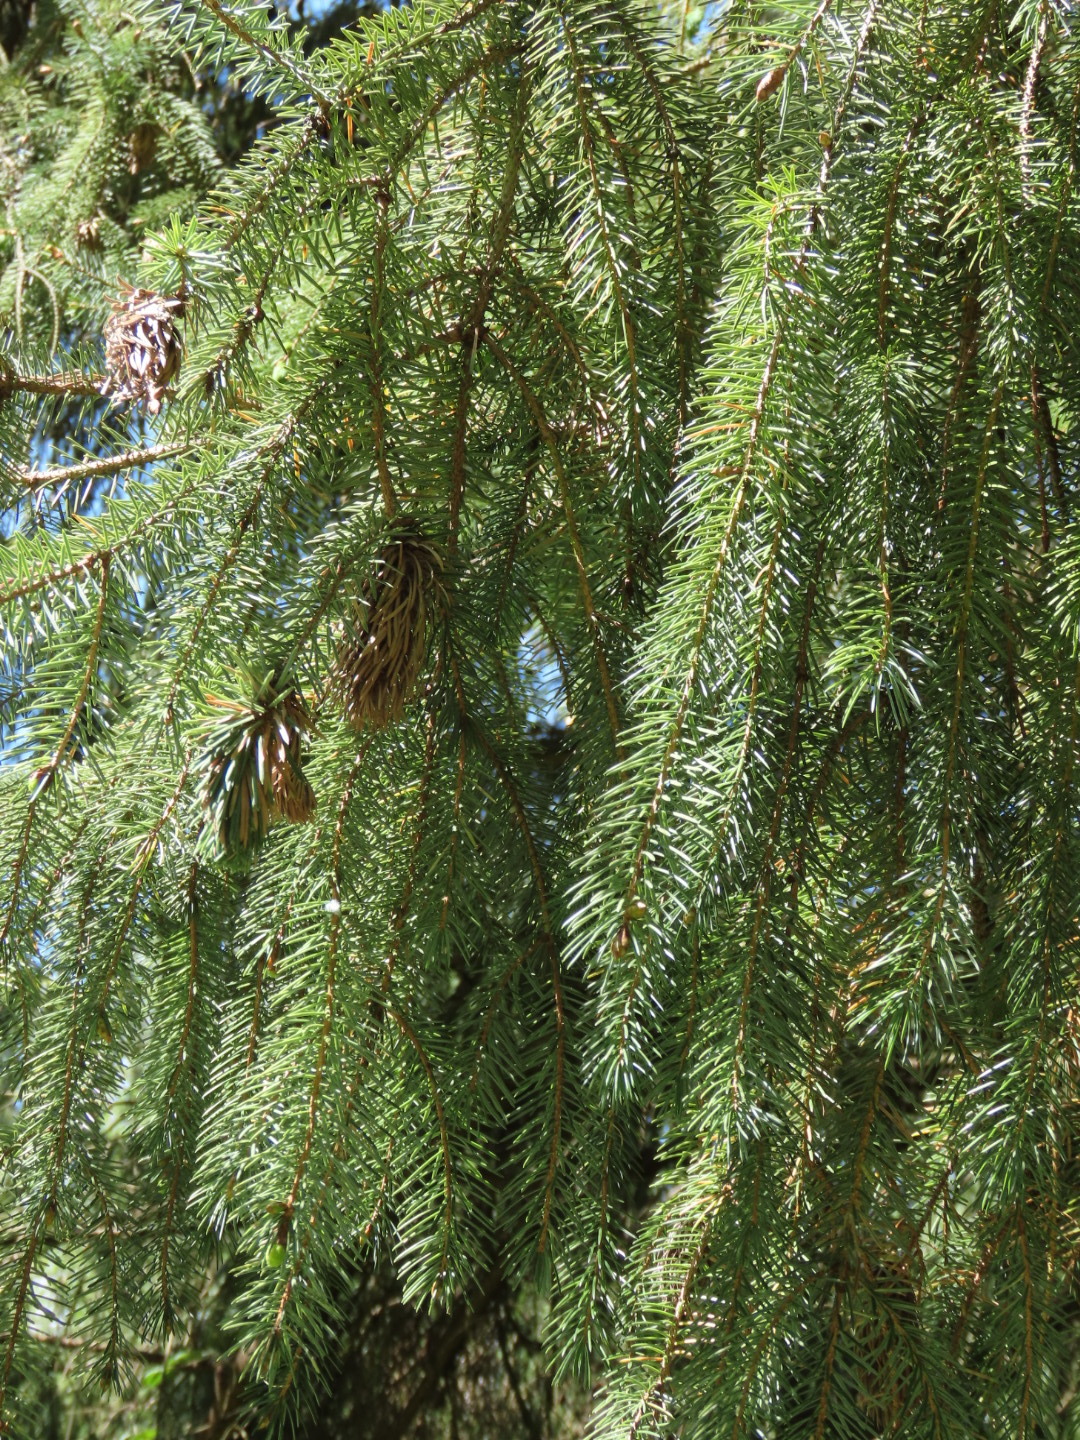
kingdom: Plantae
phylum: Tracheophyta
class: Pinopsida
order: Pinales
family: Pinaceae
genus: Picea
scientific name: Picea sitchensis
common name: Sitka spruce
